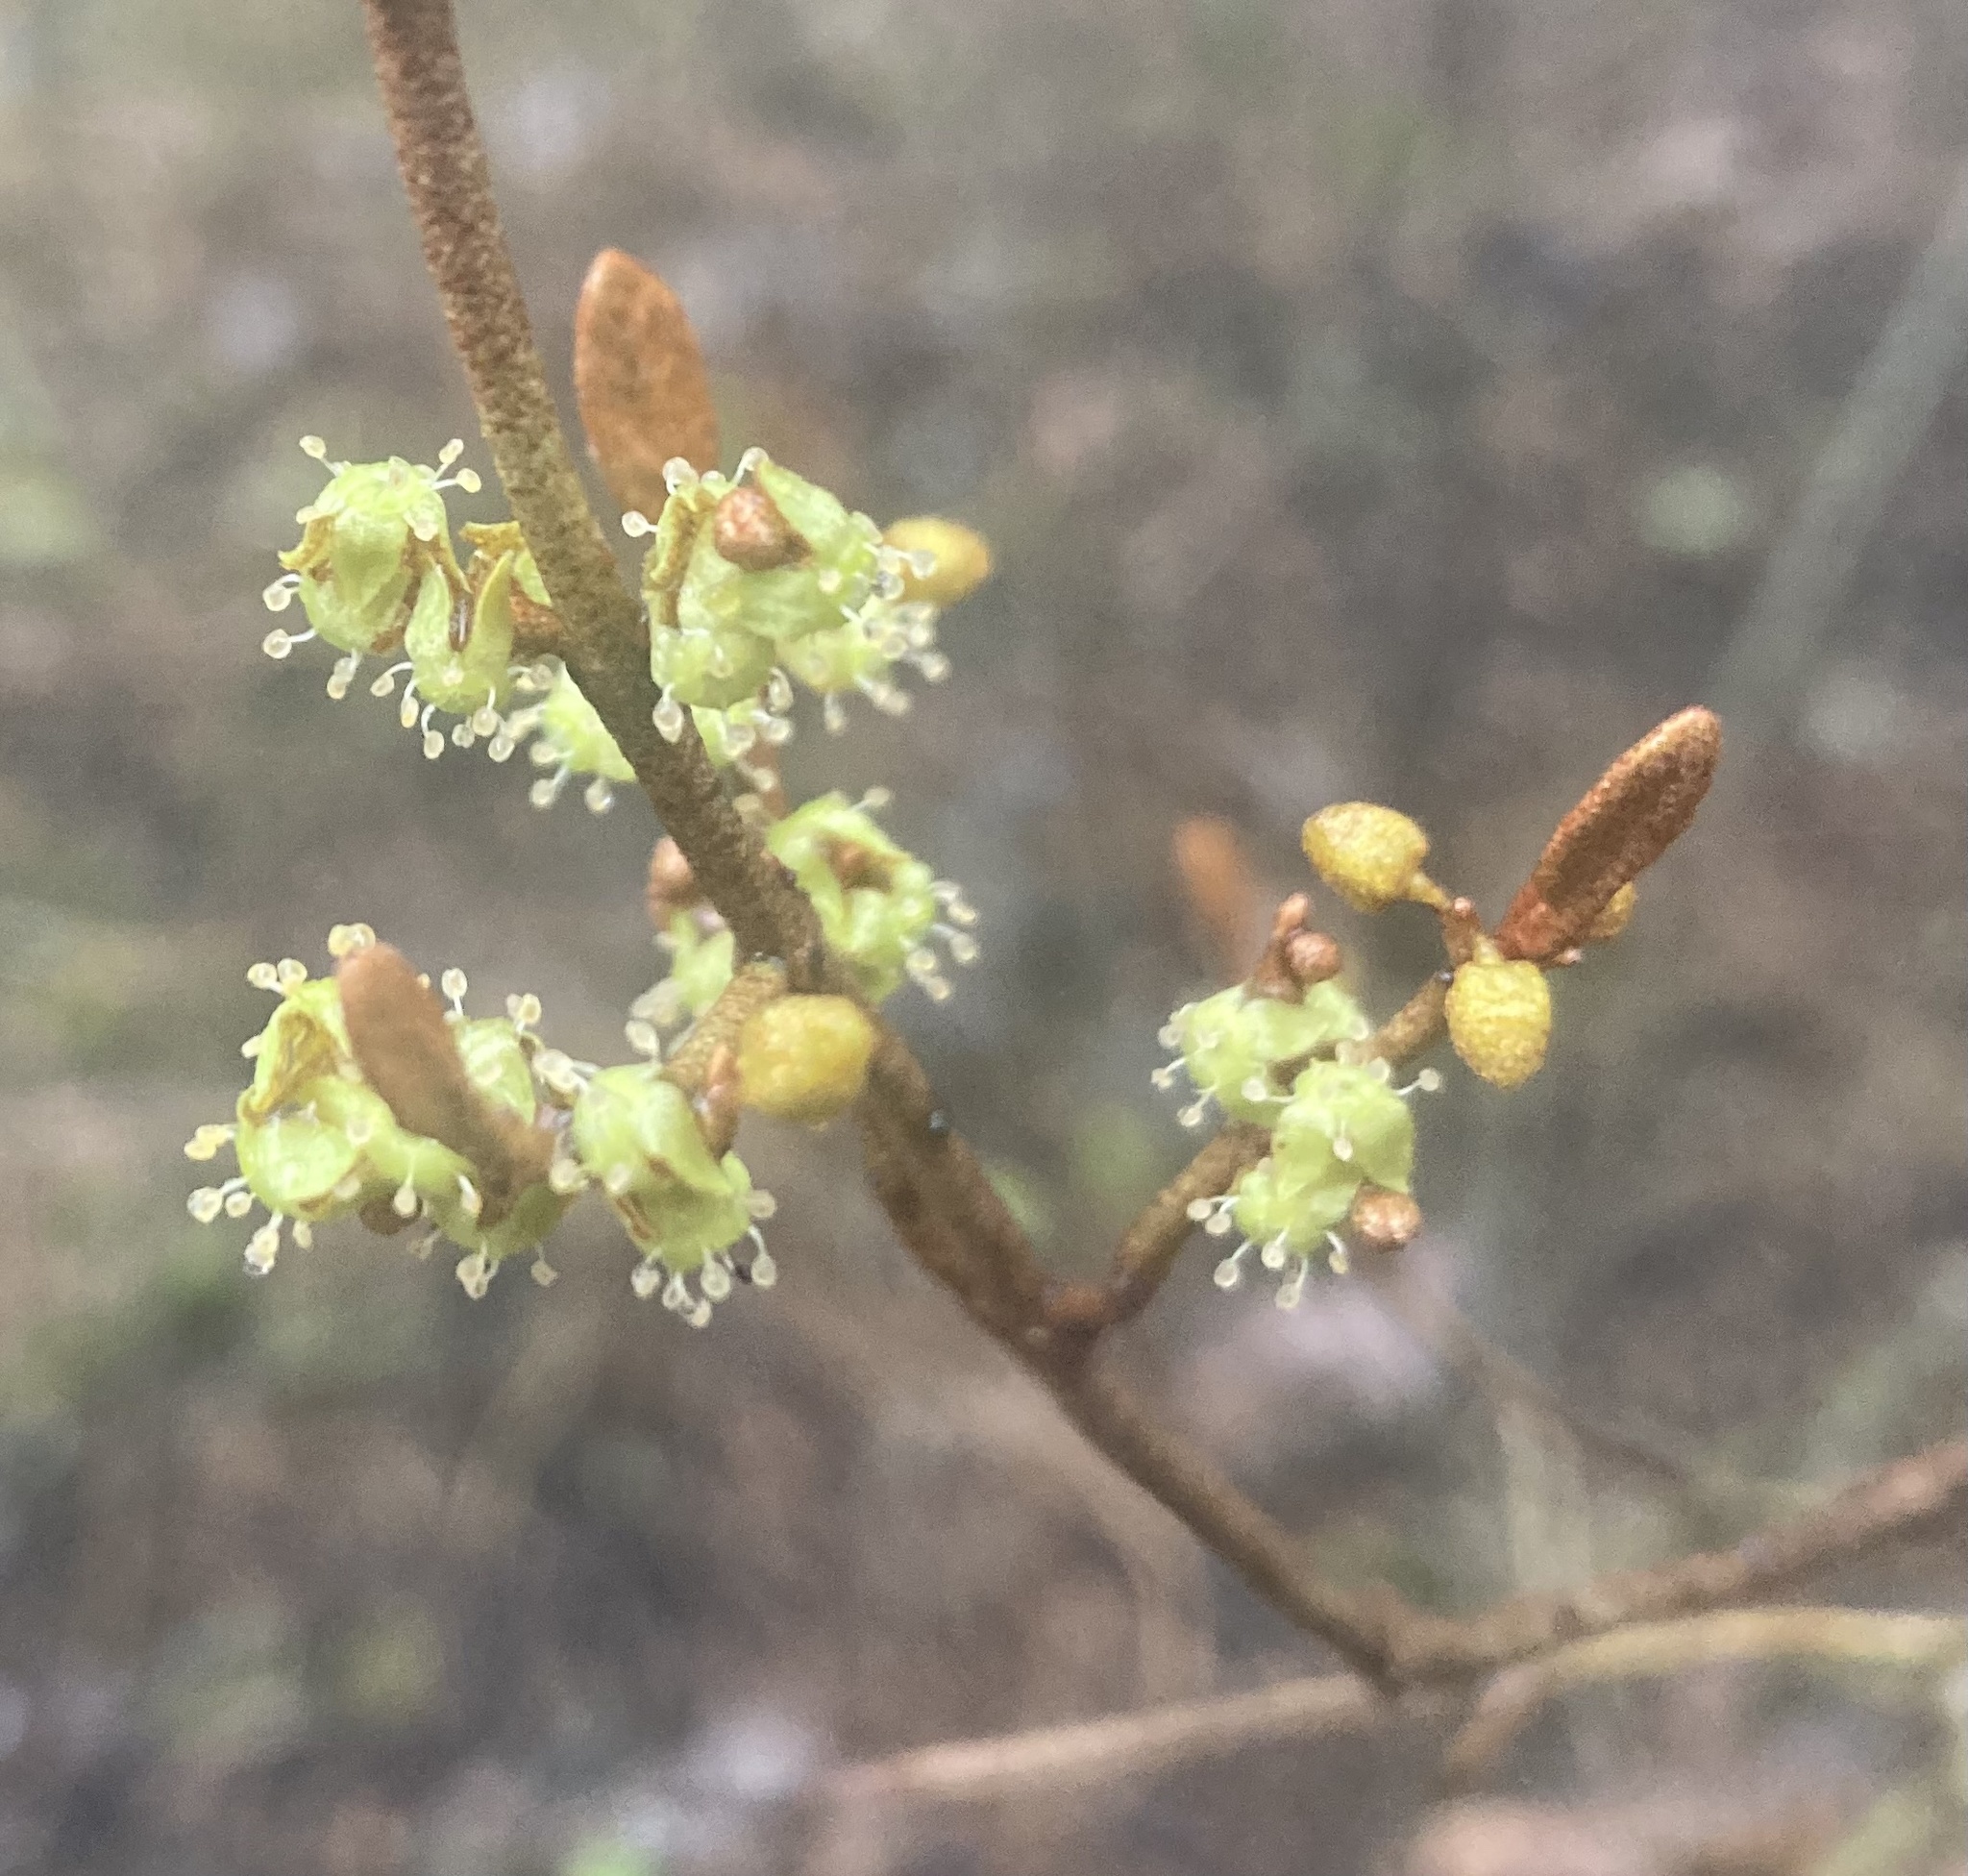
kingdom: Plantae
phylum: Tracheophyta
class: Magnoliopsida
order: Rosales
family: Elaeagnaceae
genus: Shepherdia
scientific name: Shepherdia canadensis
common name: Soapberry
